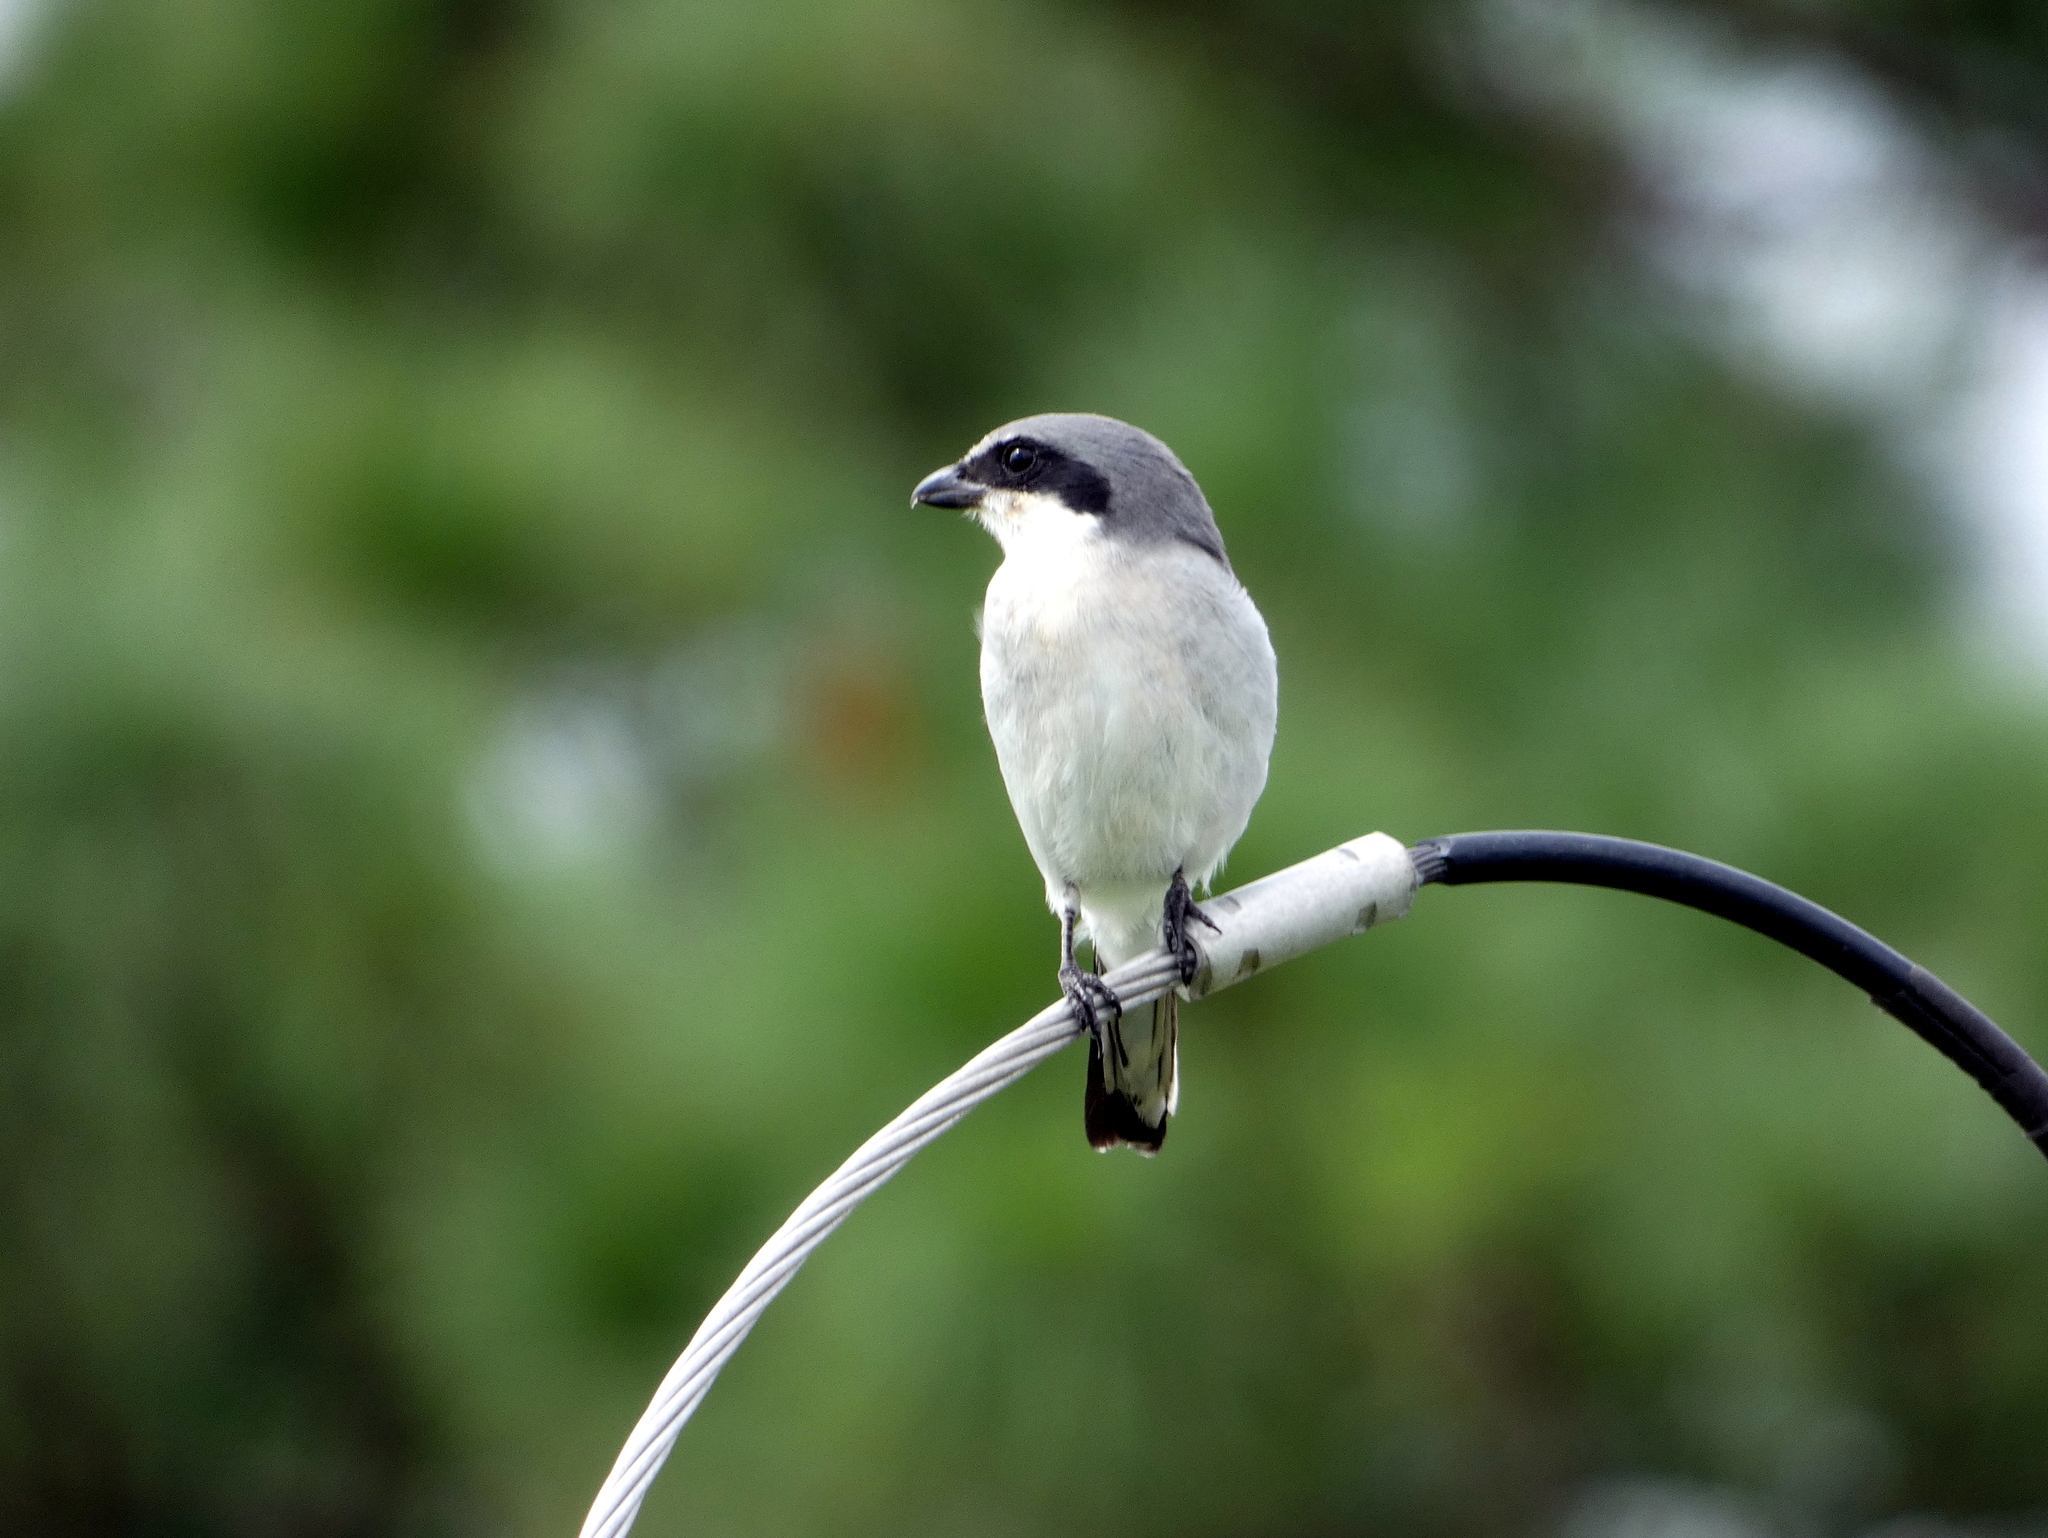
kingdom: Animalia
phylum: Chordata
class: Aves
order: Passeriformes
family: Laniidae
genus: Lanius
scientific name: Lanius ludovicianus
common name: Loggerhead shrike
